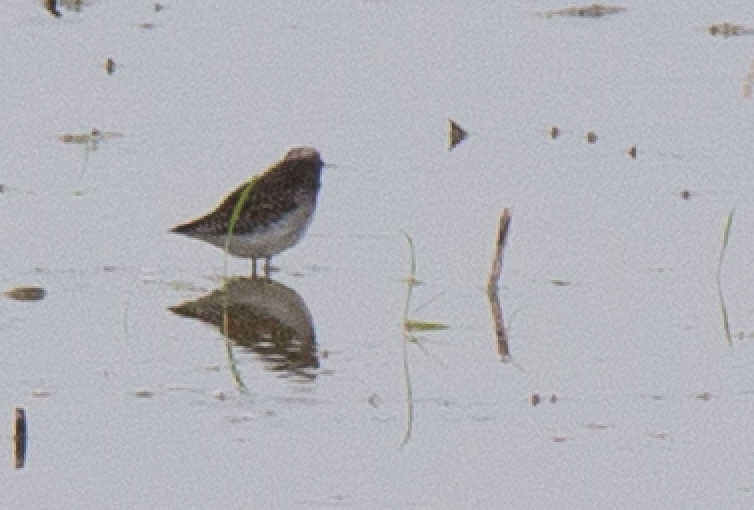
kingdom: Animalia
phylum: Chordata
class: Aves
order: Charadriiformes
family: Scolopacidae
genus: Tringa
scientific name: Tringa glareola
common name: Wood sandpiper
